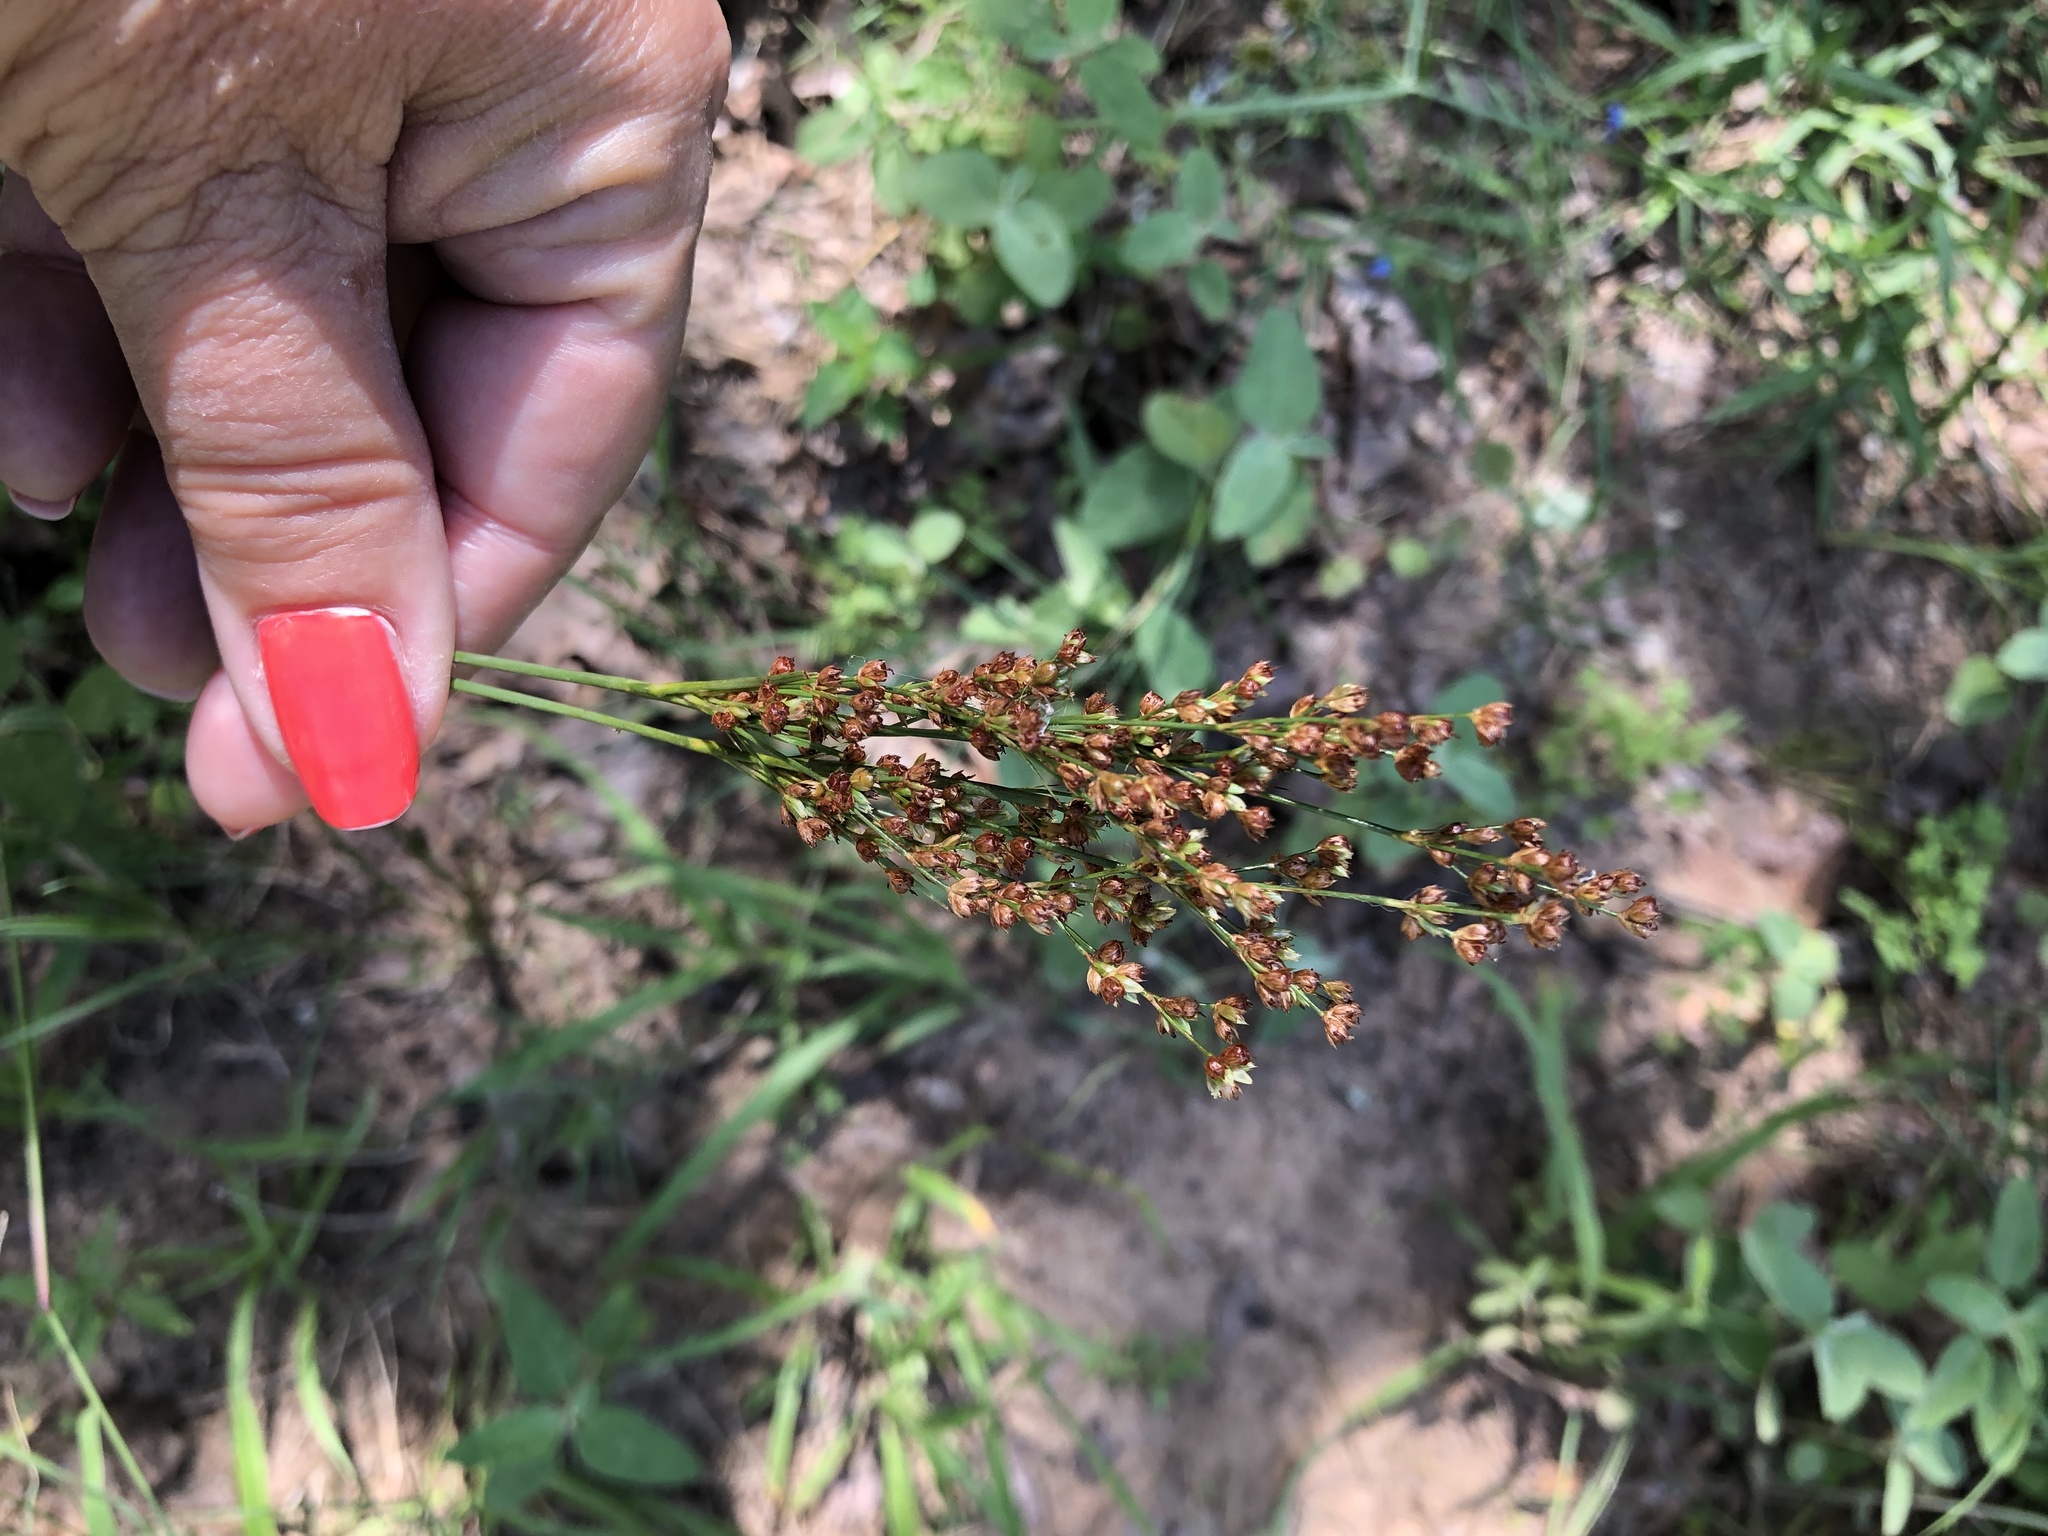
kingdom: Plantae
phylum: Tracheophyta
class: Liliopsida
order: Poales
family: Juncaceae
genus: Juncus
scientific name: Juncus marginatus
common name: Grass-leaf rush
